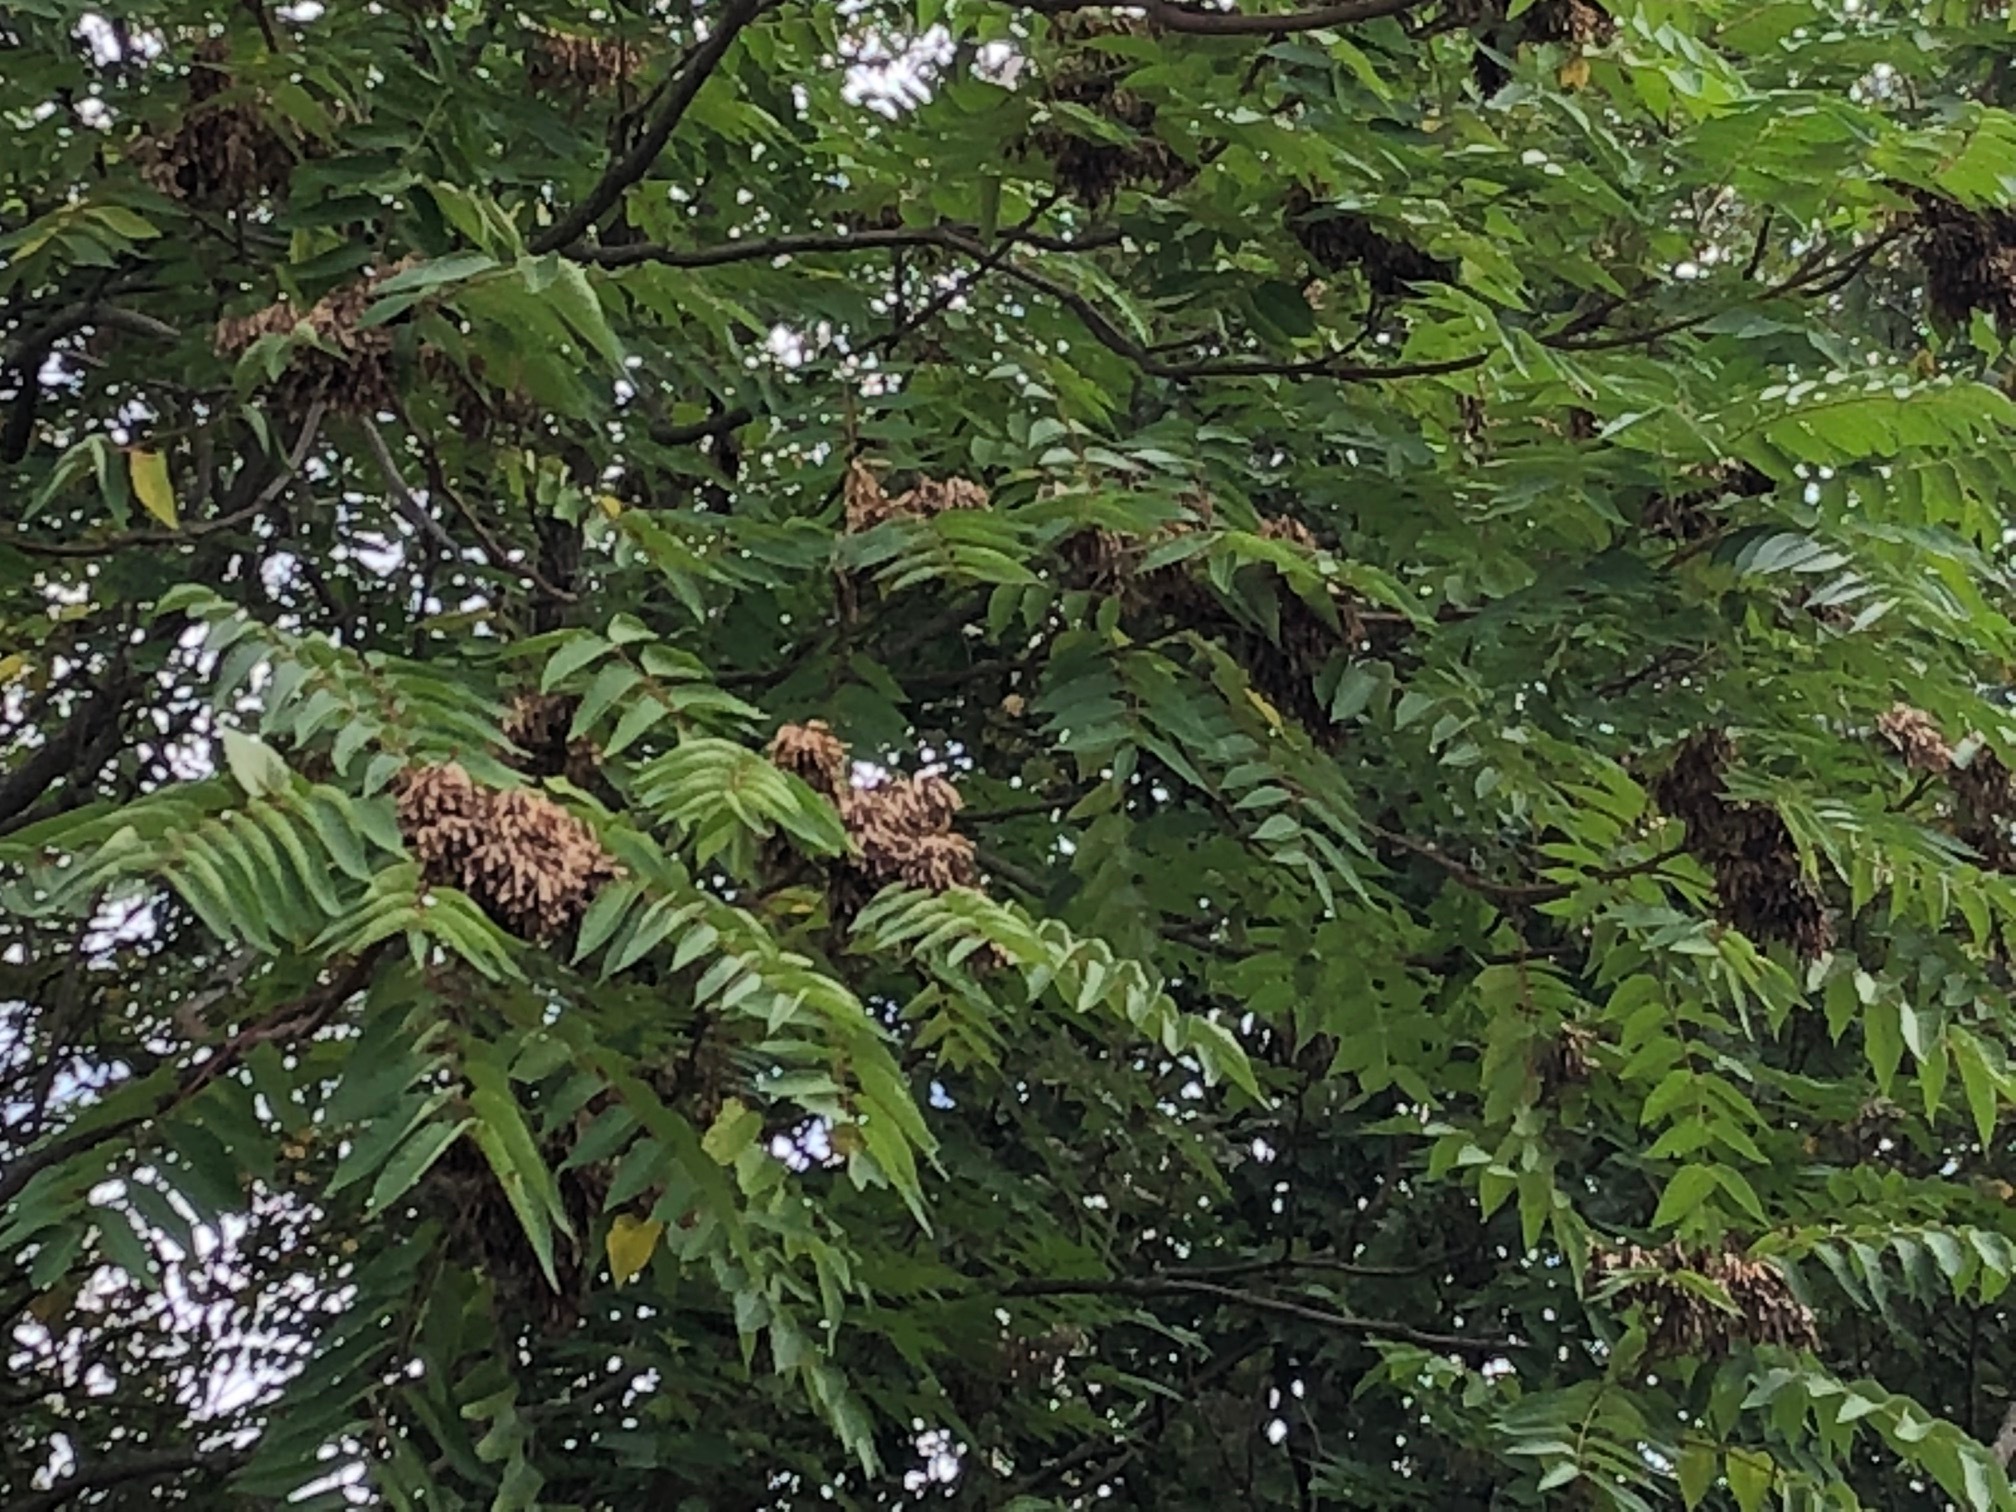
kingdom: Plantae
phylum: Tracheophyta
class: Magnoliopsida
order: Sapindales
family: Simaroubaceae
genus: Ailanthus
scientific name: Ailanthus altissima
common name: Tree-of-heaven
